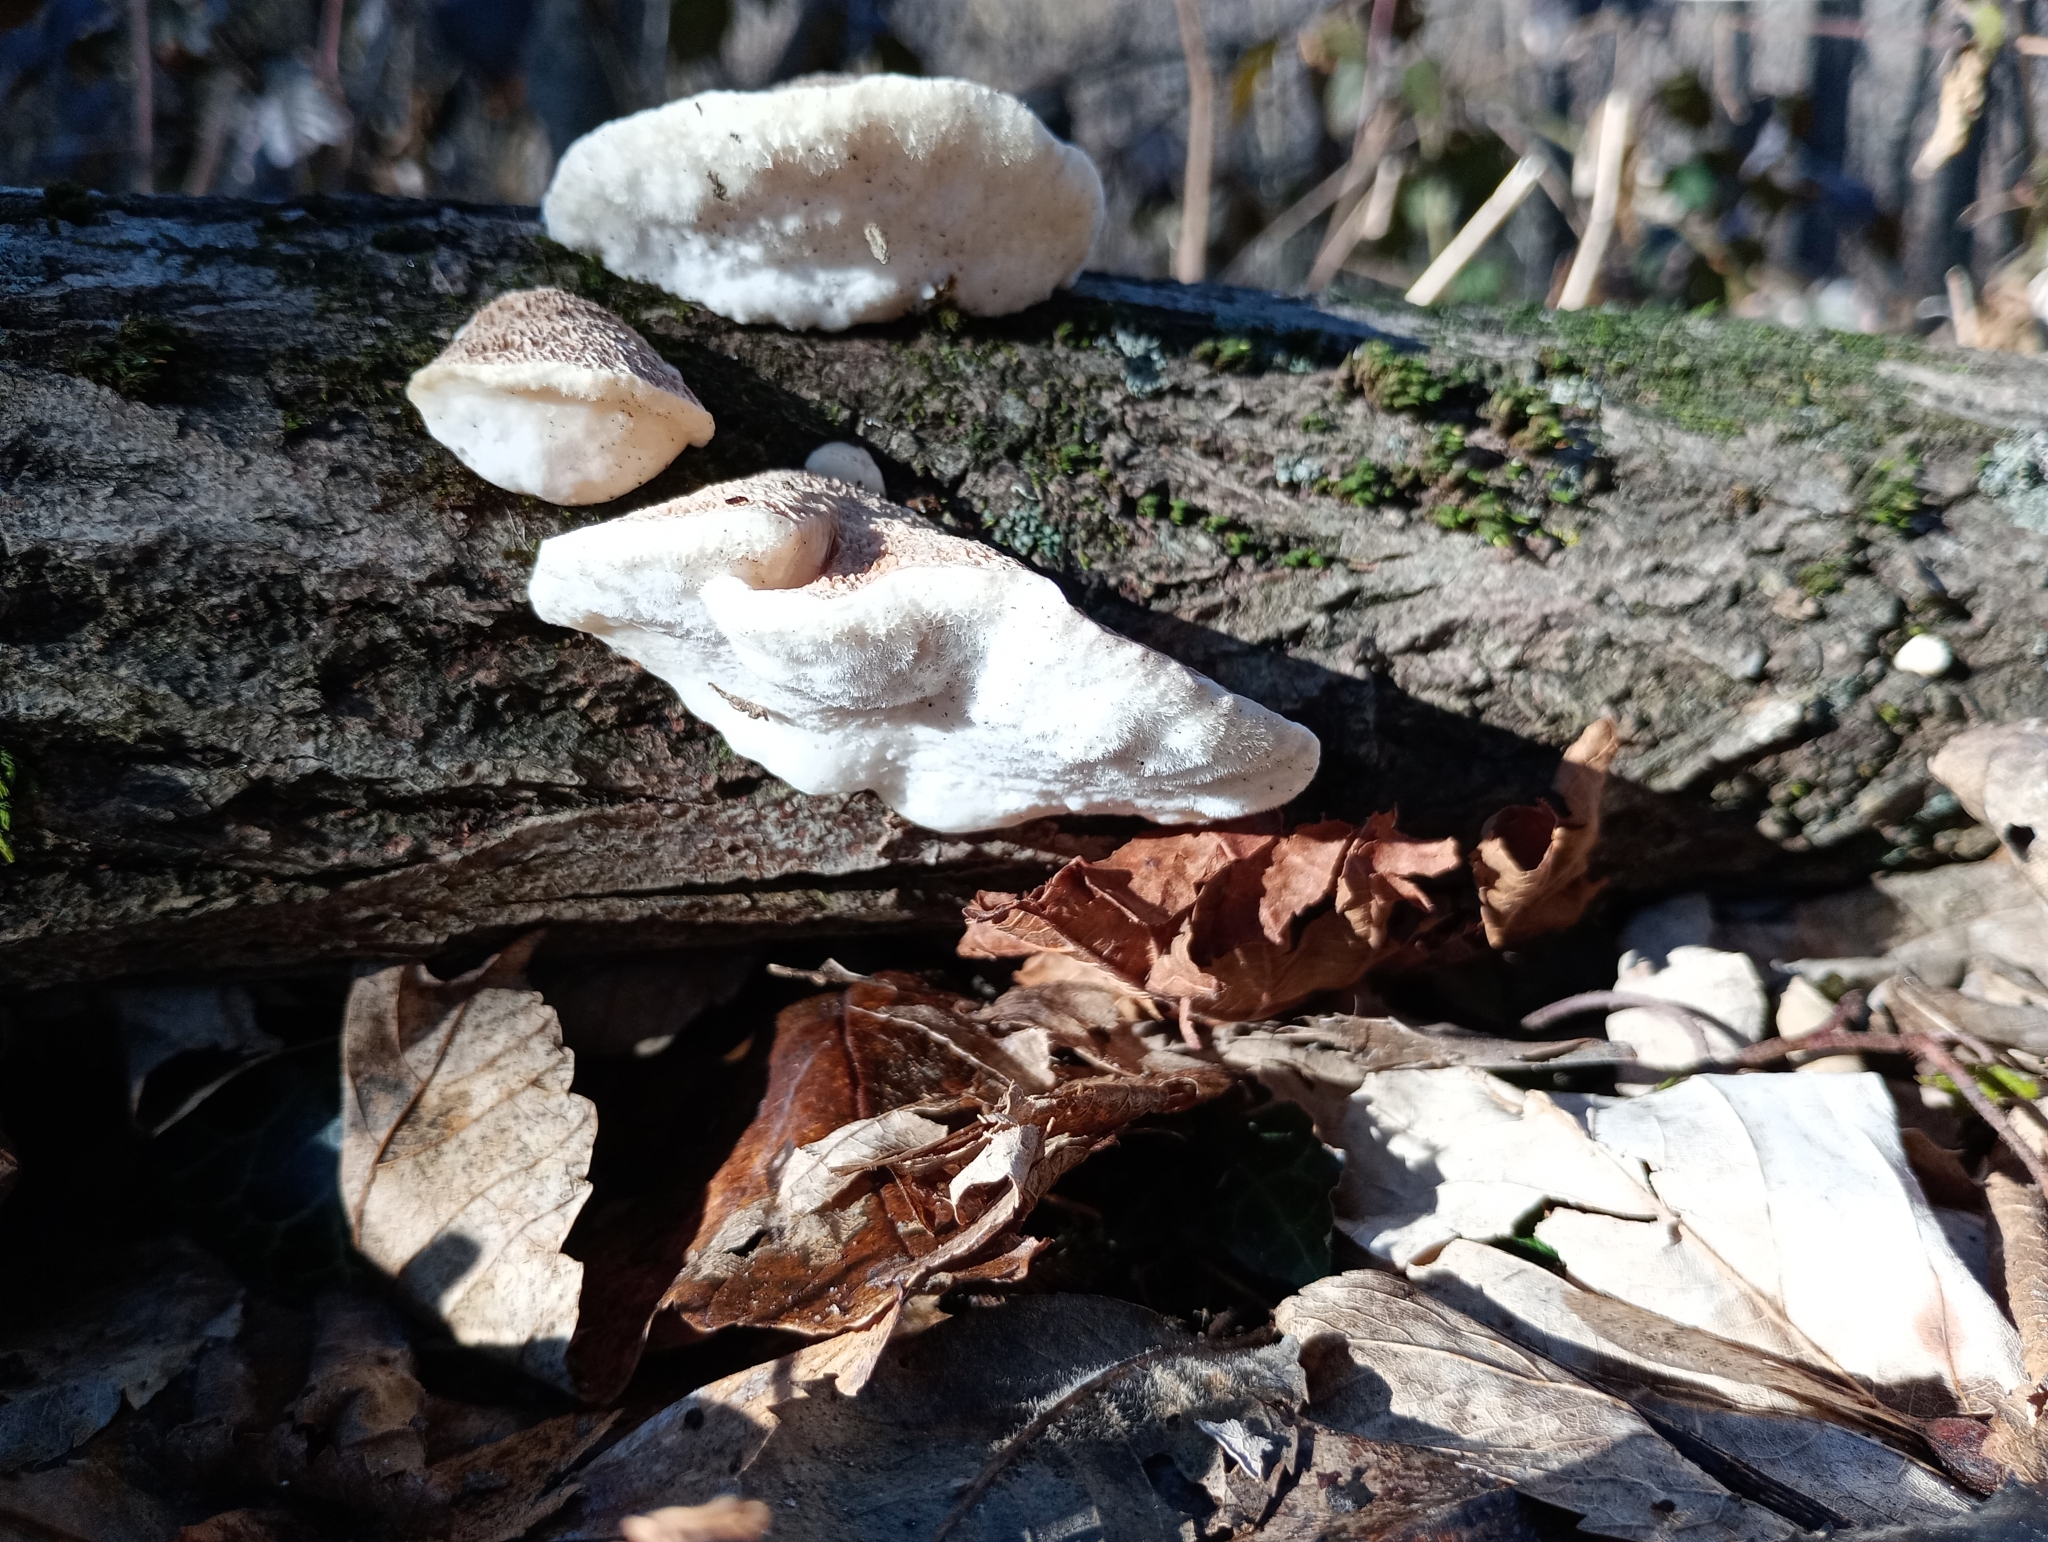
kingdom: Fungi
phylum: Basidiomycota
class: Agaricomycetes
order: Polyporales
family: Polyporaceae
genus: Trametes
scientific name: Trametes suaveolens
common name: Fragrant bracket
